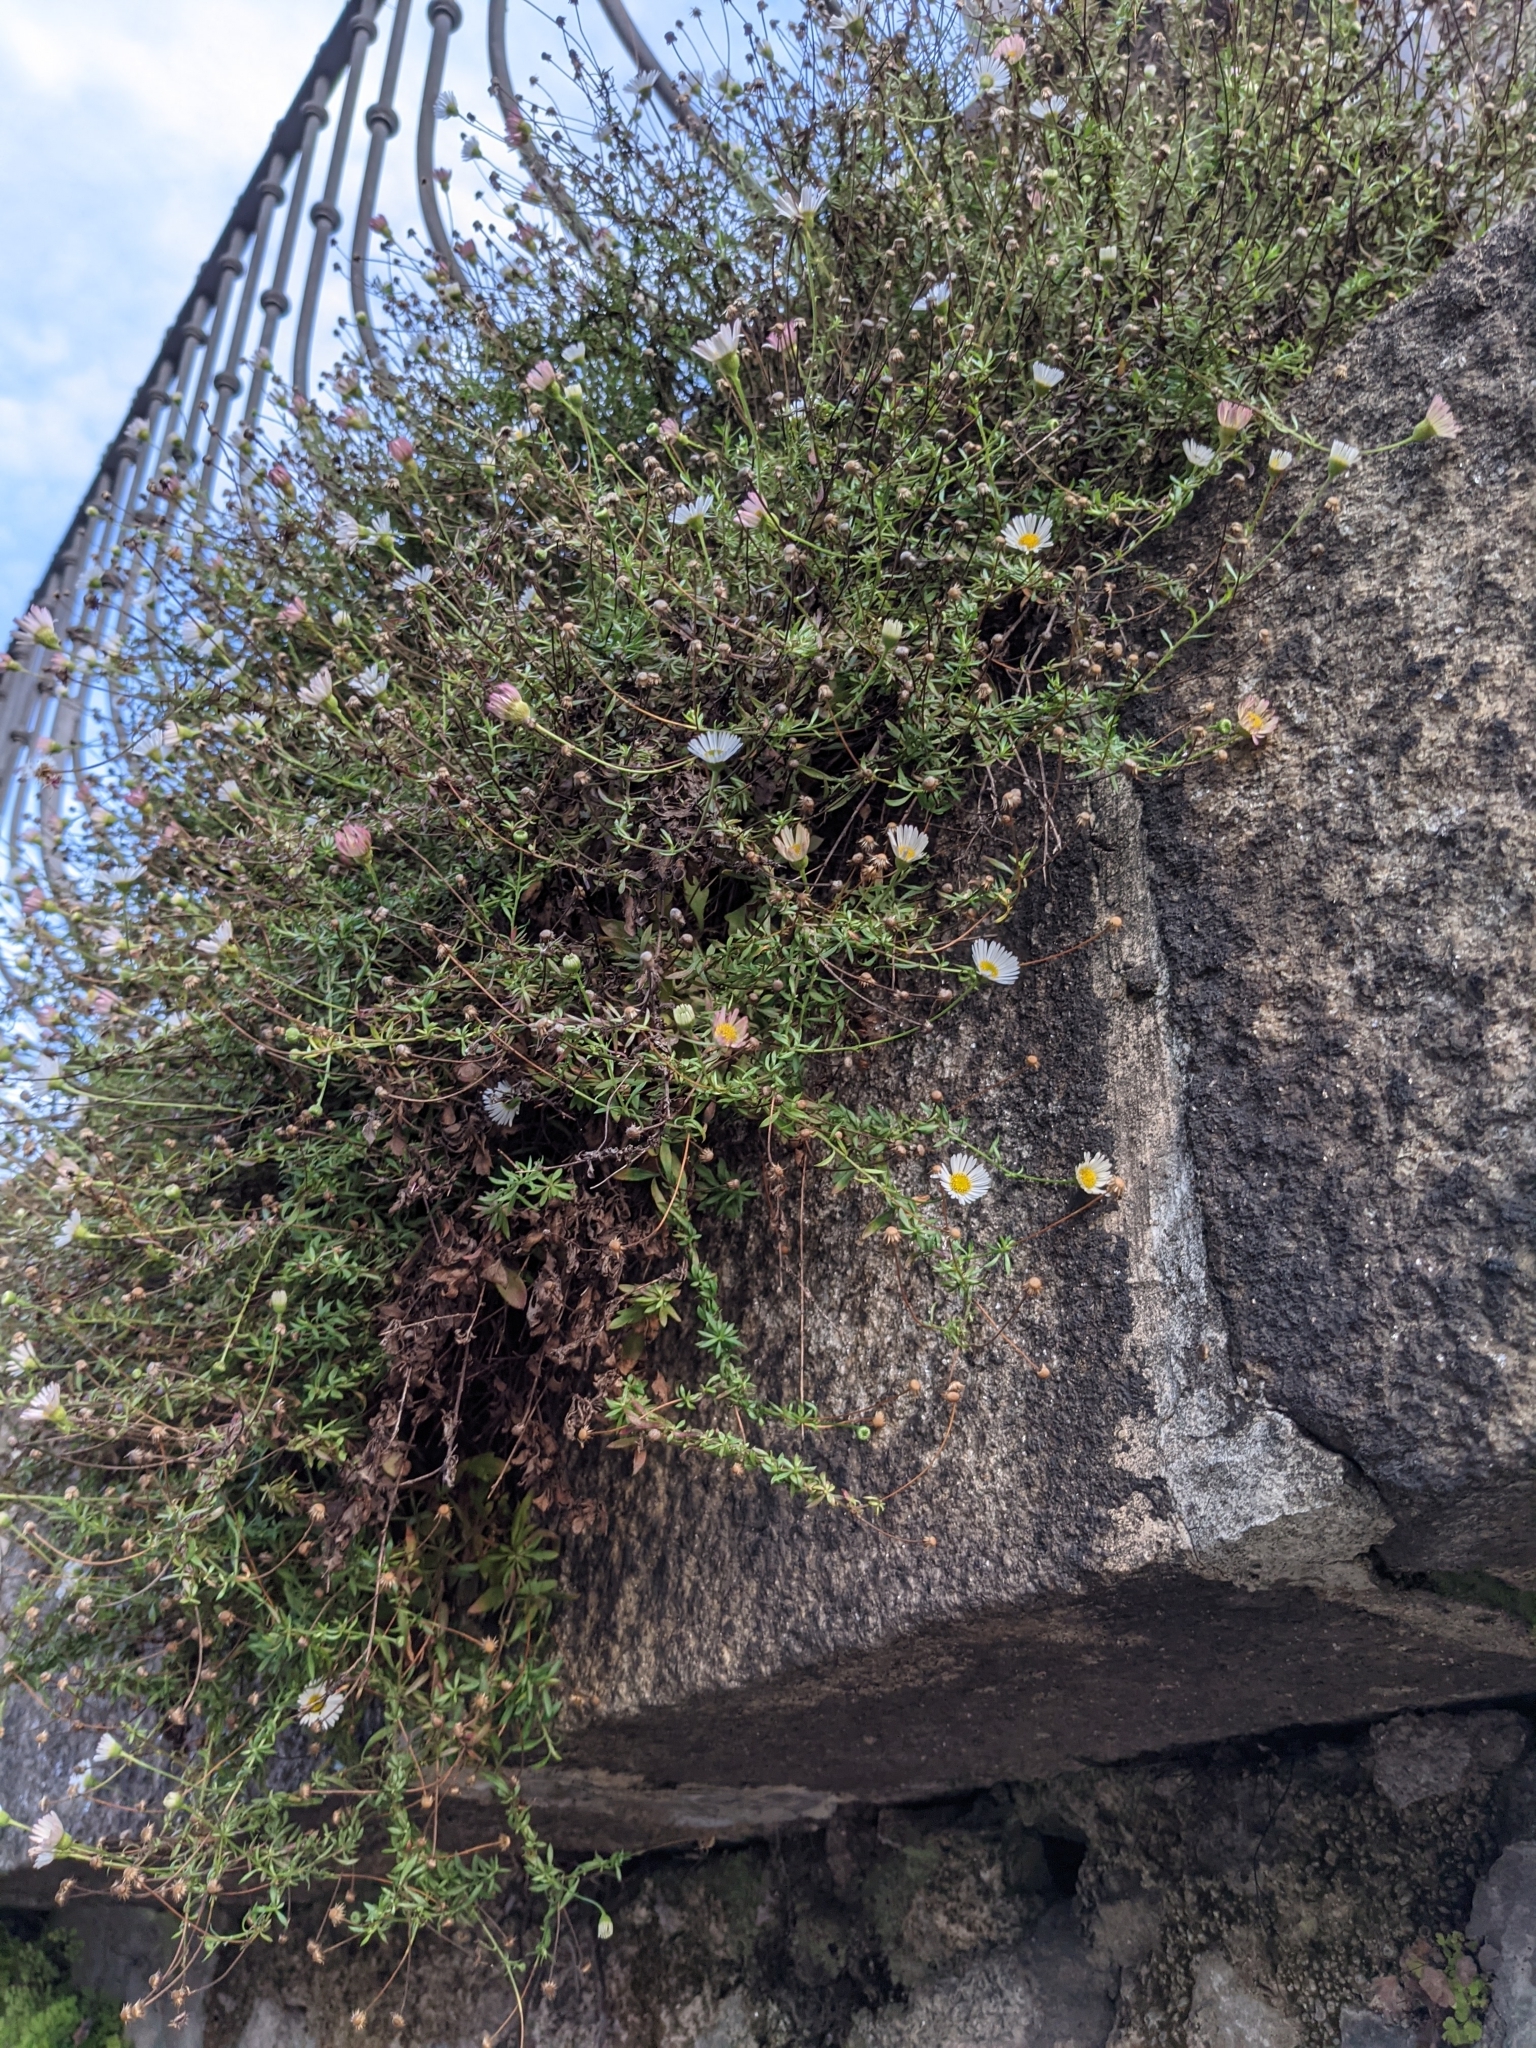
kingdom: Plantae
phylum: Tracheophyta
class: Magnoliopsida
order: Asterales
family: Asteraceae
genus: Erigeron
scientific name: Erigeron karvinskianus
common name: Mexican fleabane
